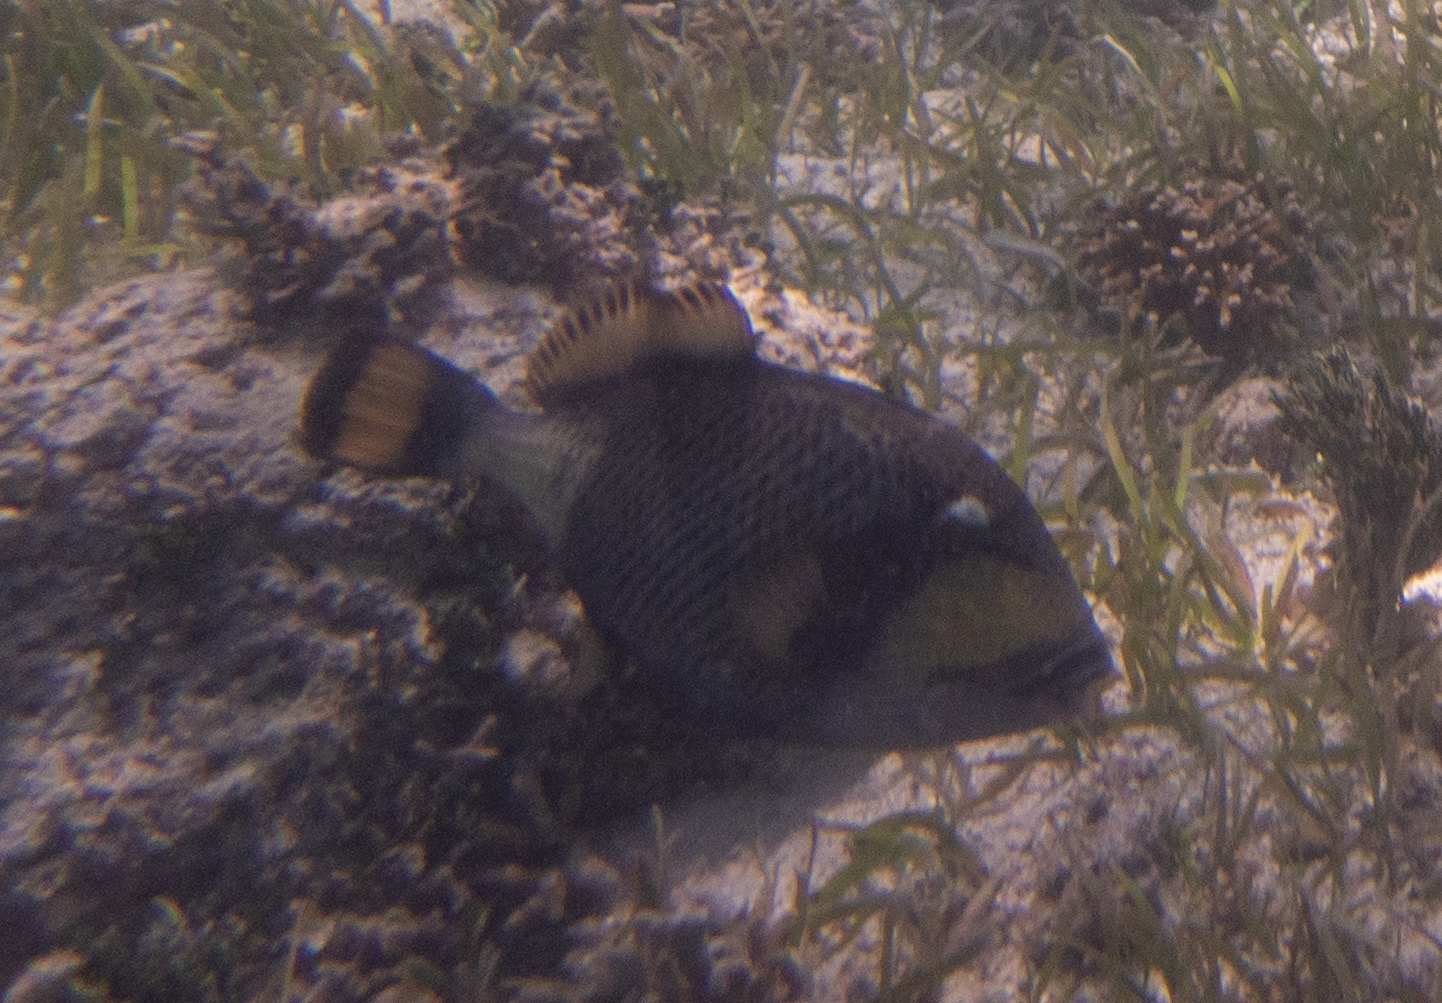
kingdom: Animalia
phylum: Chordata
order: Tetraodontiformes
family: Balistidae
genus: Balistoides
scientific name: Balistoides viridescens
